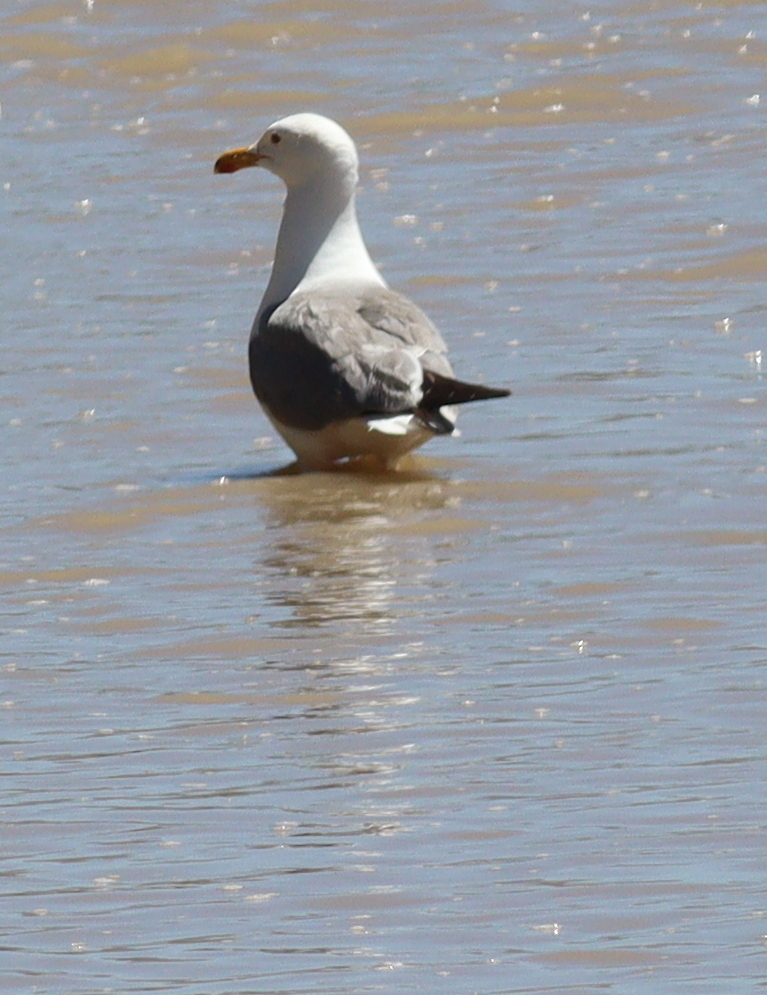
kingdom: Animalia
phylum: Chordata
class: Aves
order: Charadriiformes
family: Laridae
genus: Larus
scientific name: Larus armenicus
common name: Armenian gull
